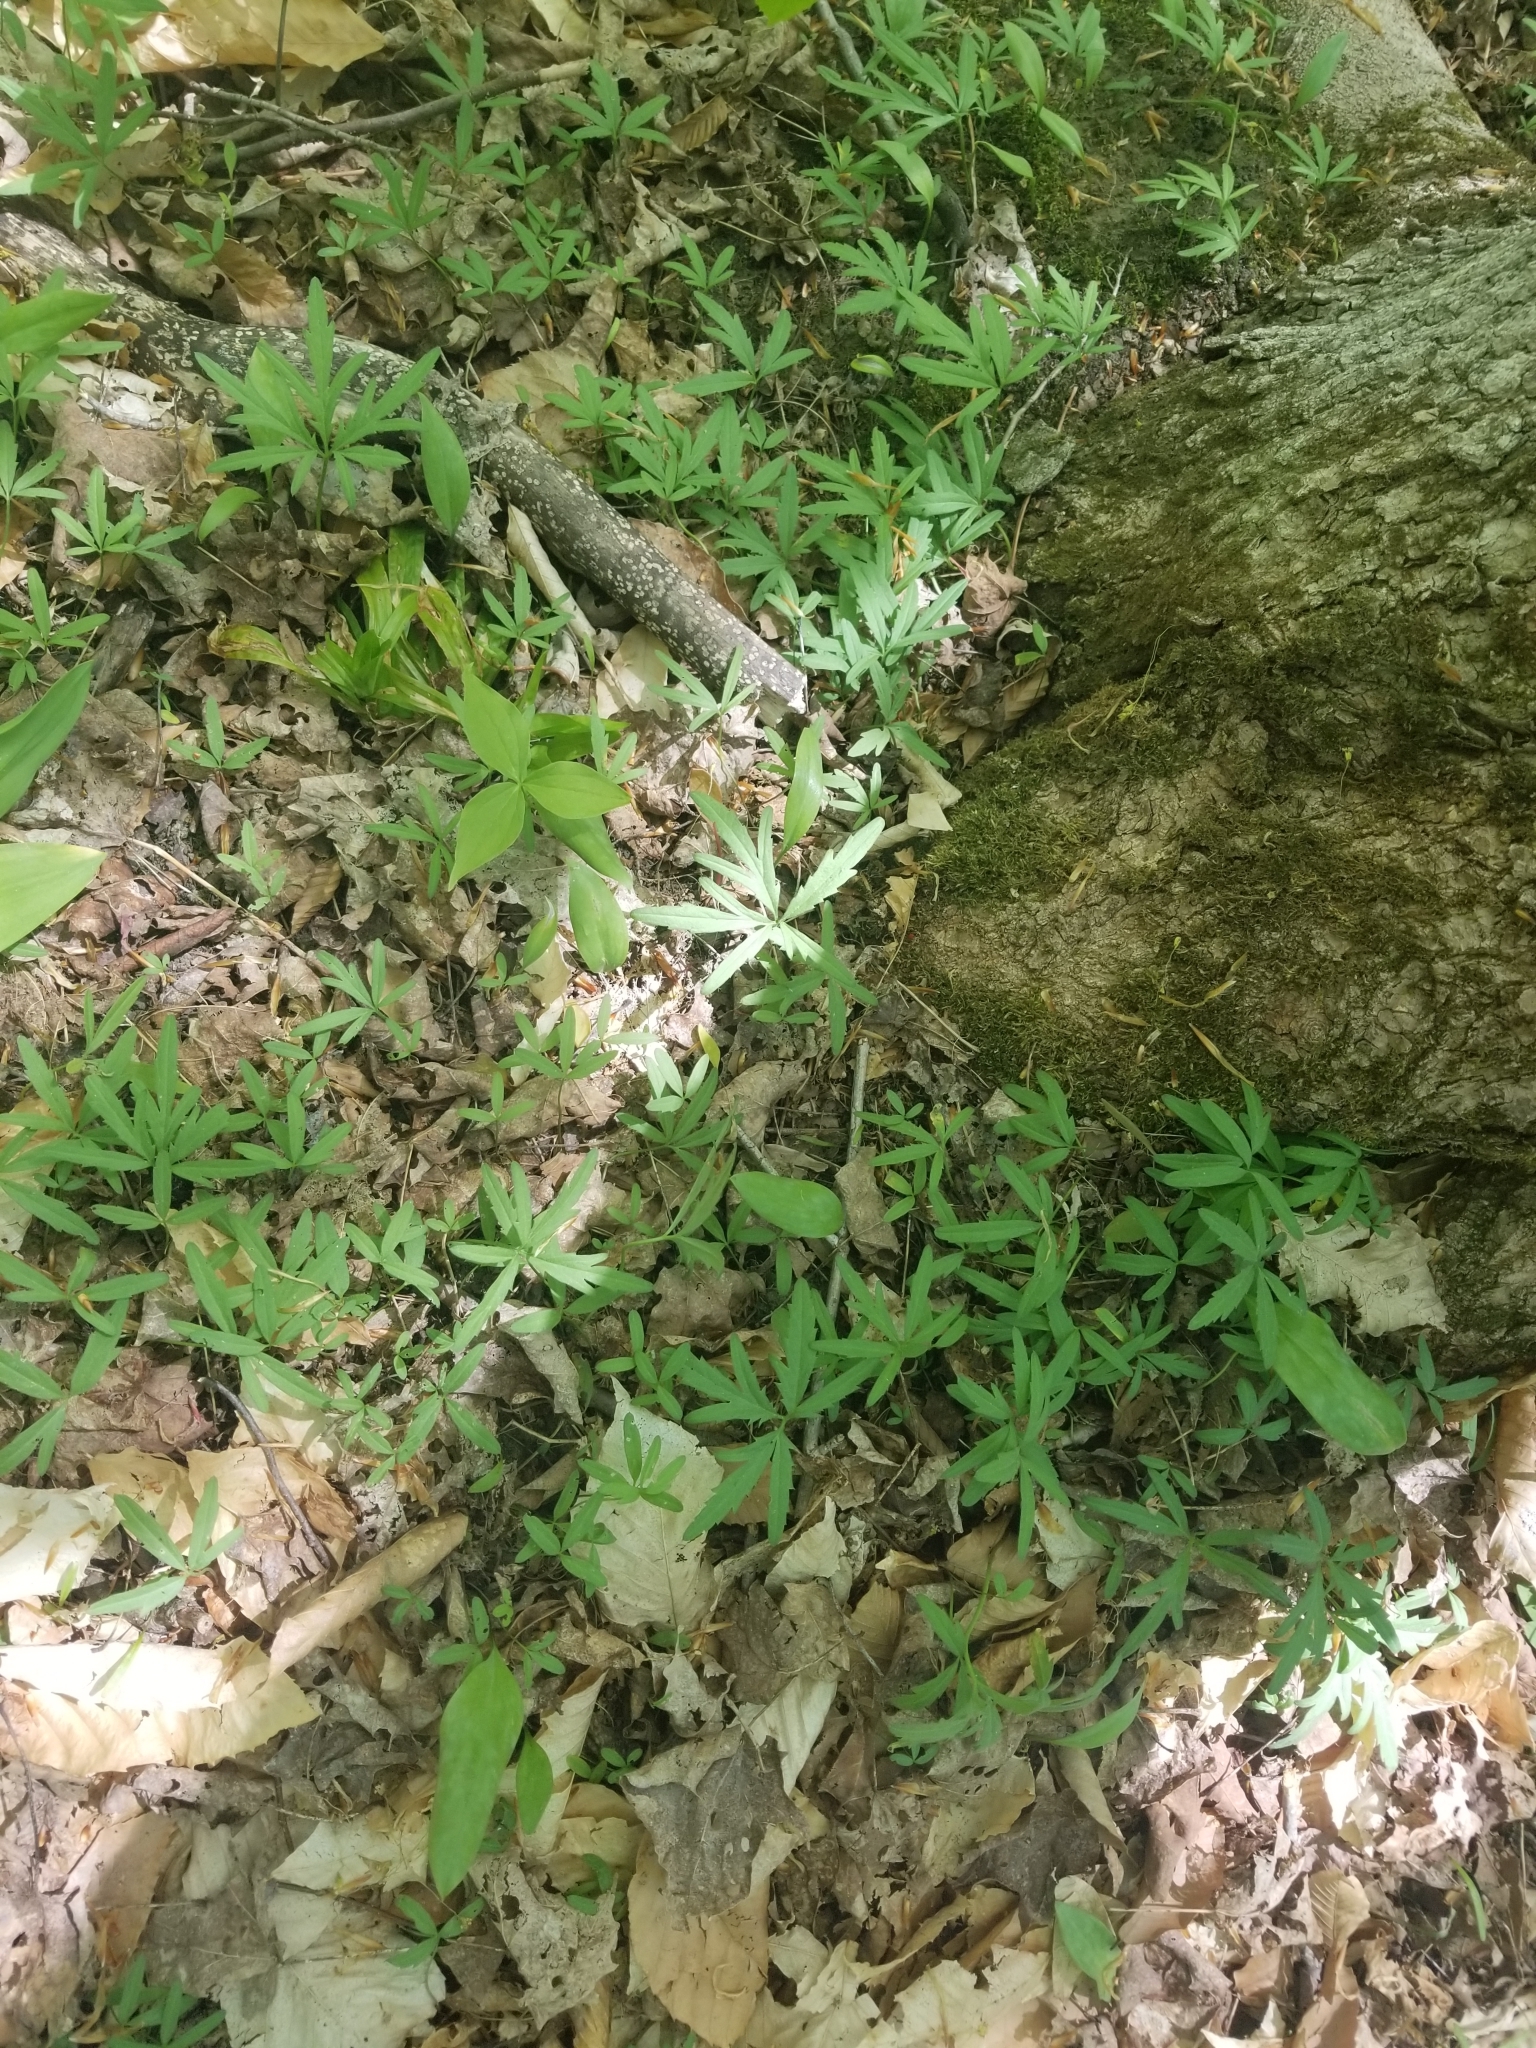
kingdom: Plantae
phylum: Tracheophyta
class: Magnoliopsida
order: Brassicales
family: Brassicaceae
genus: Cardamine
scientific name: Cardamine concatenata
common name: Cut-leaf toothcup
